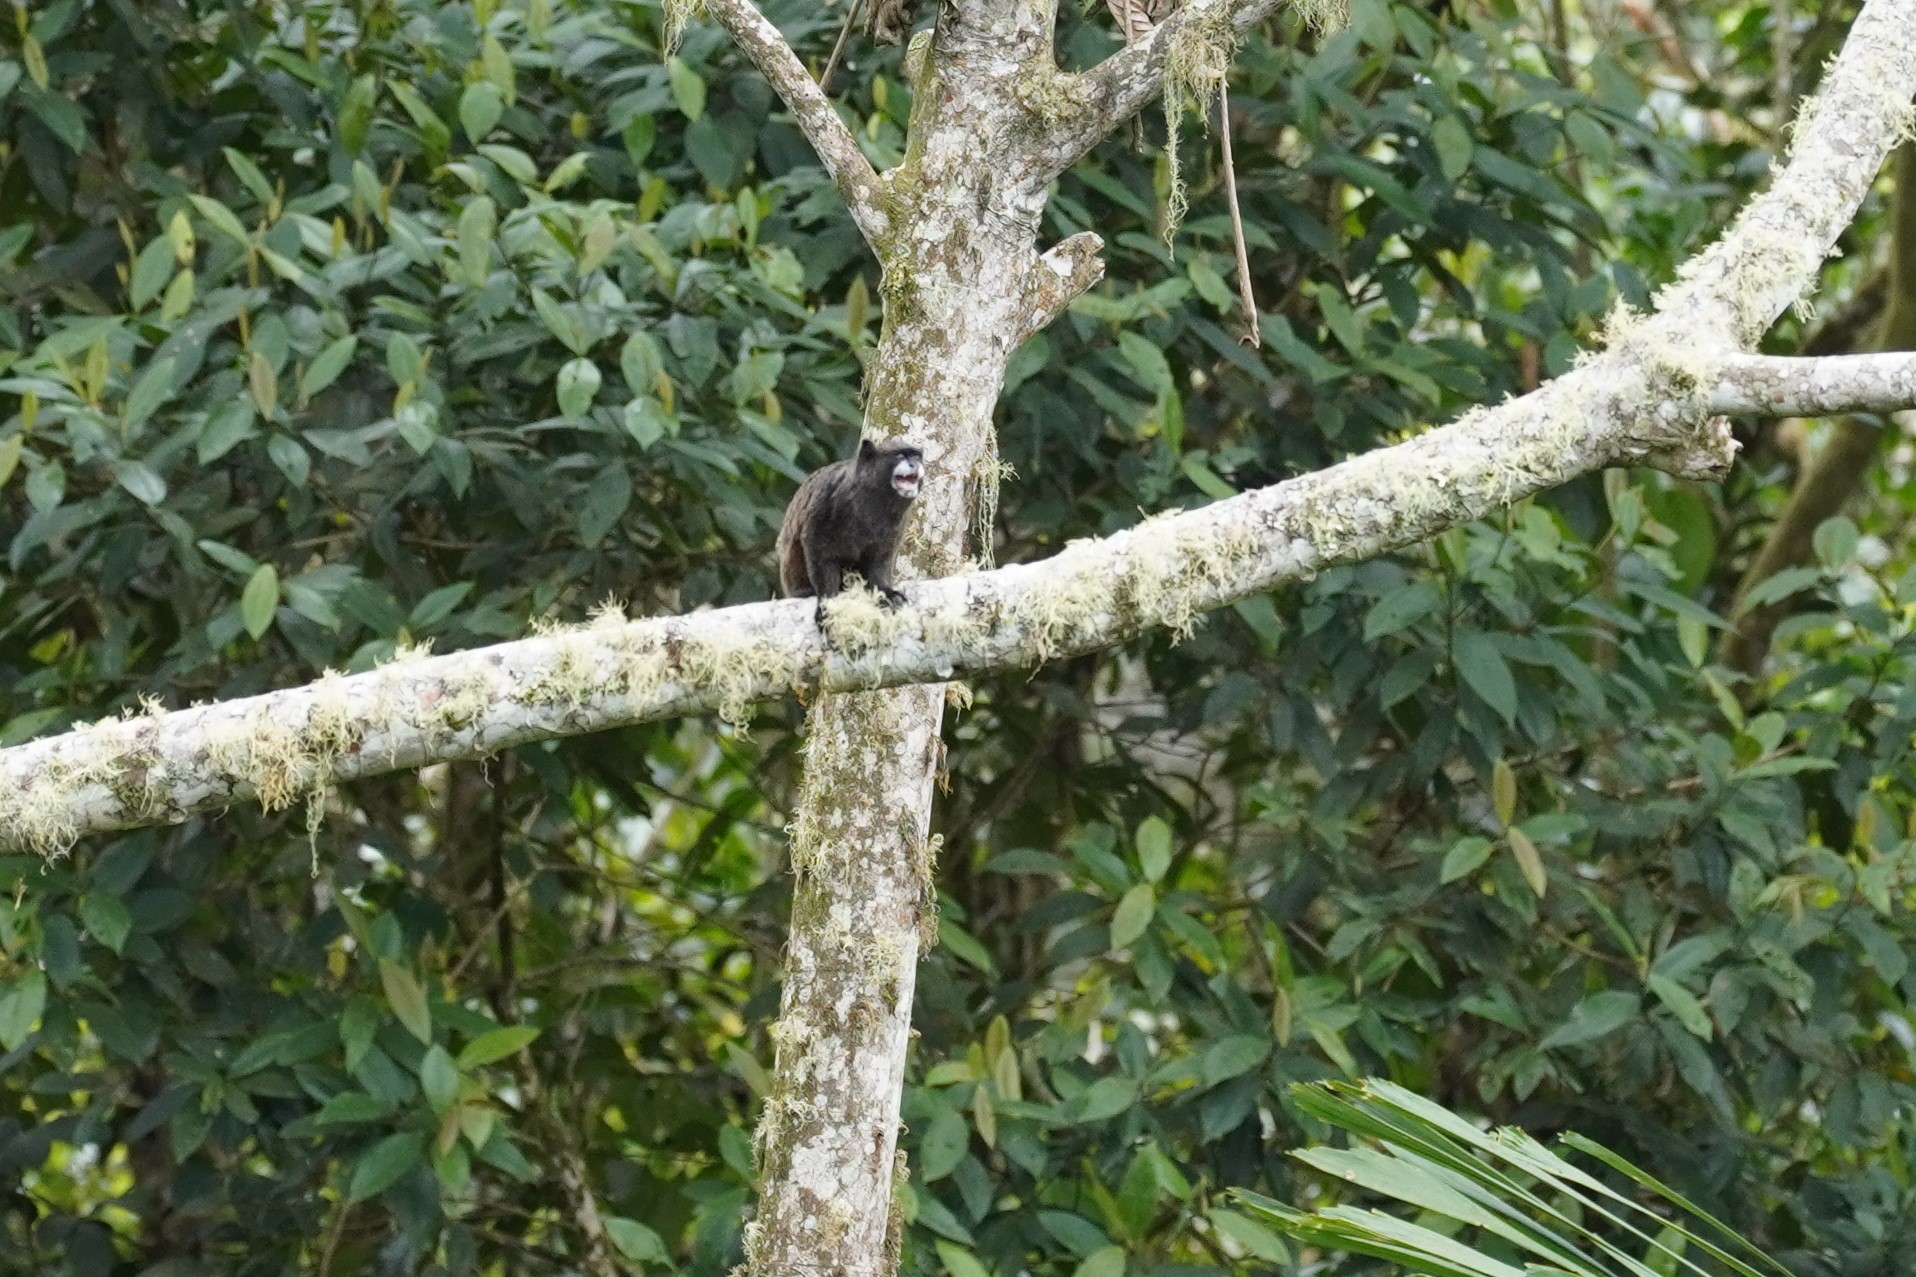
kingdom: Animalia
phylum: Chordata
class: Mammalia
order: Primates
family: Callitrichidae
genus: Leontocebus
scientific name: Leontocebus nigricollis
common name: Black-mantled tamarin
